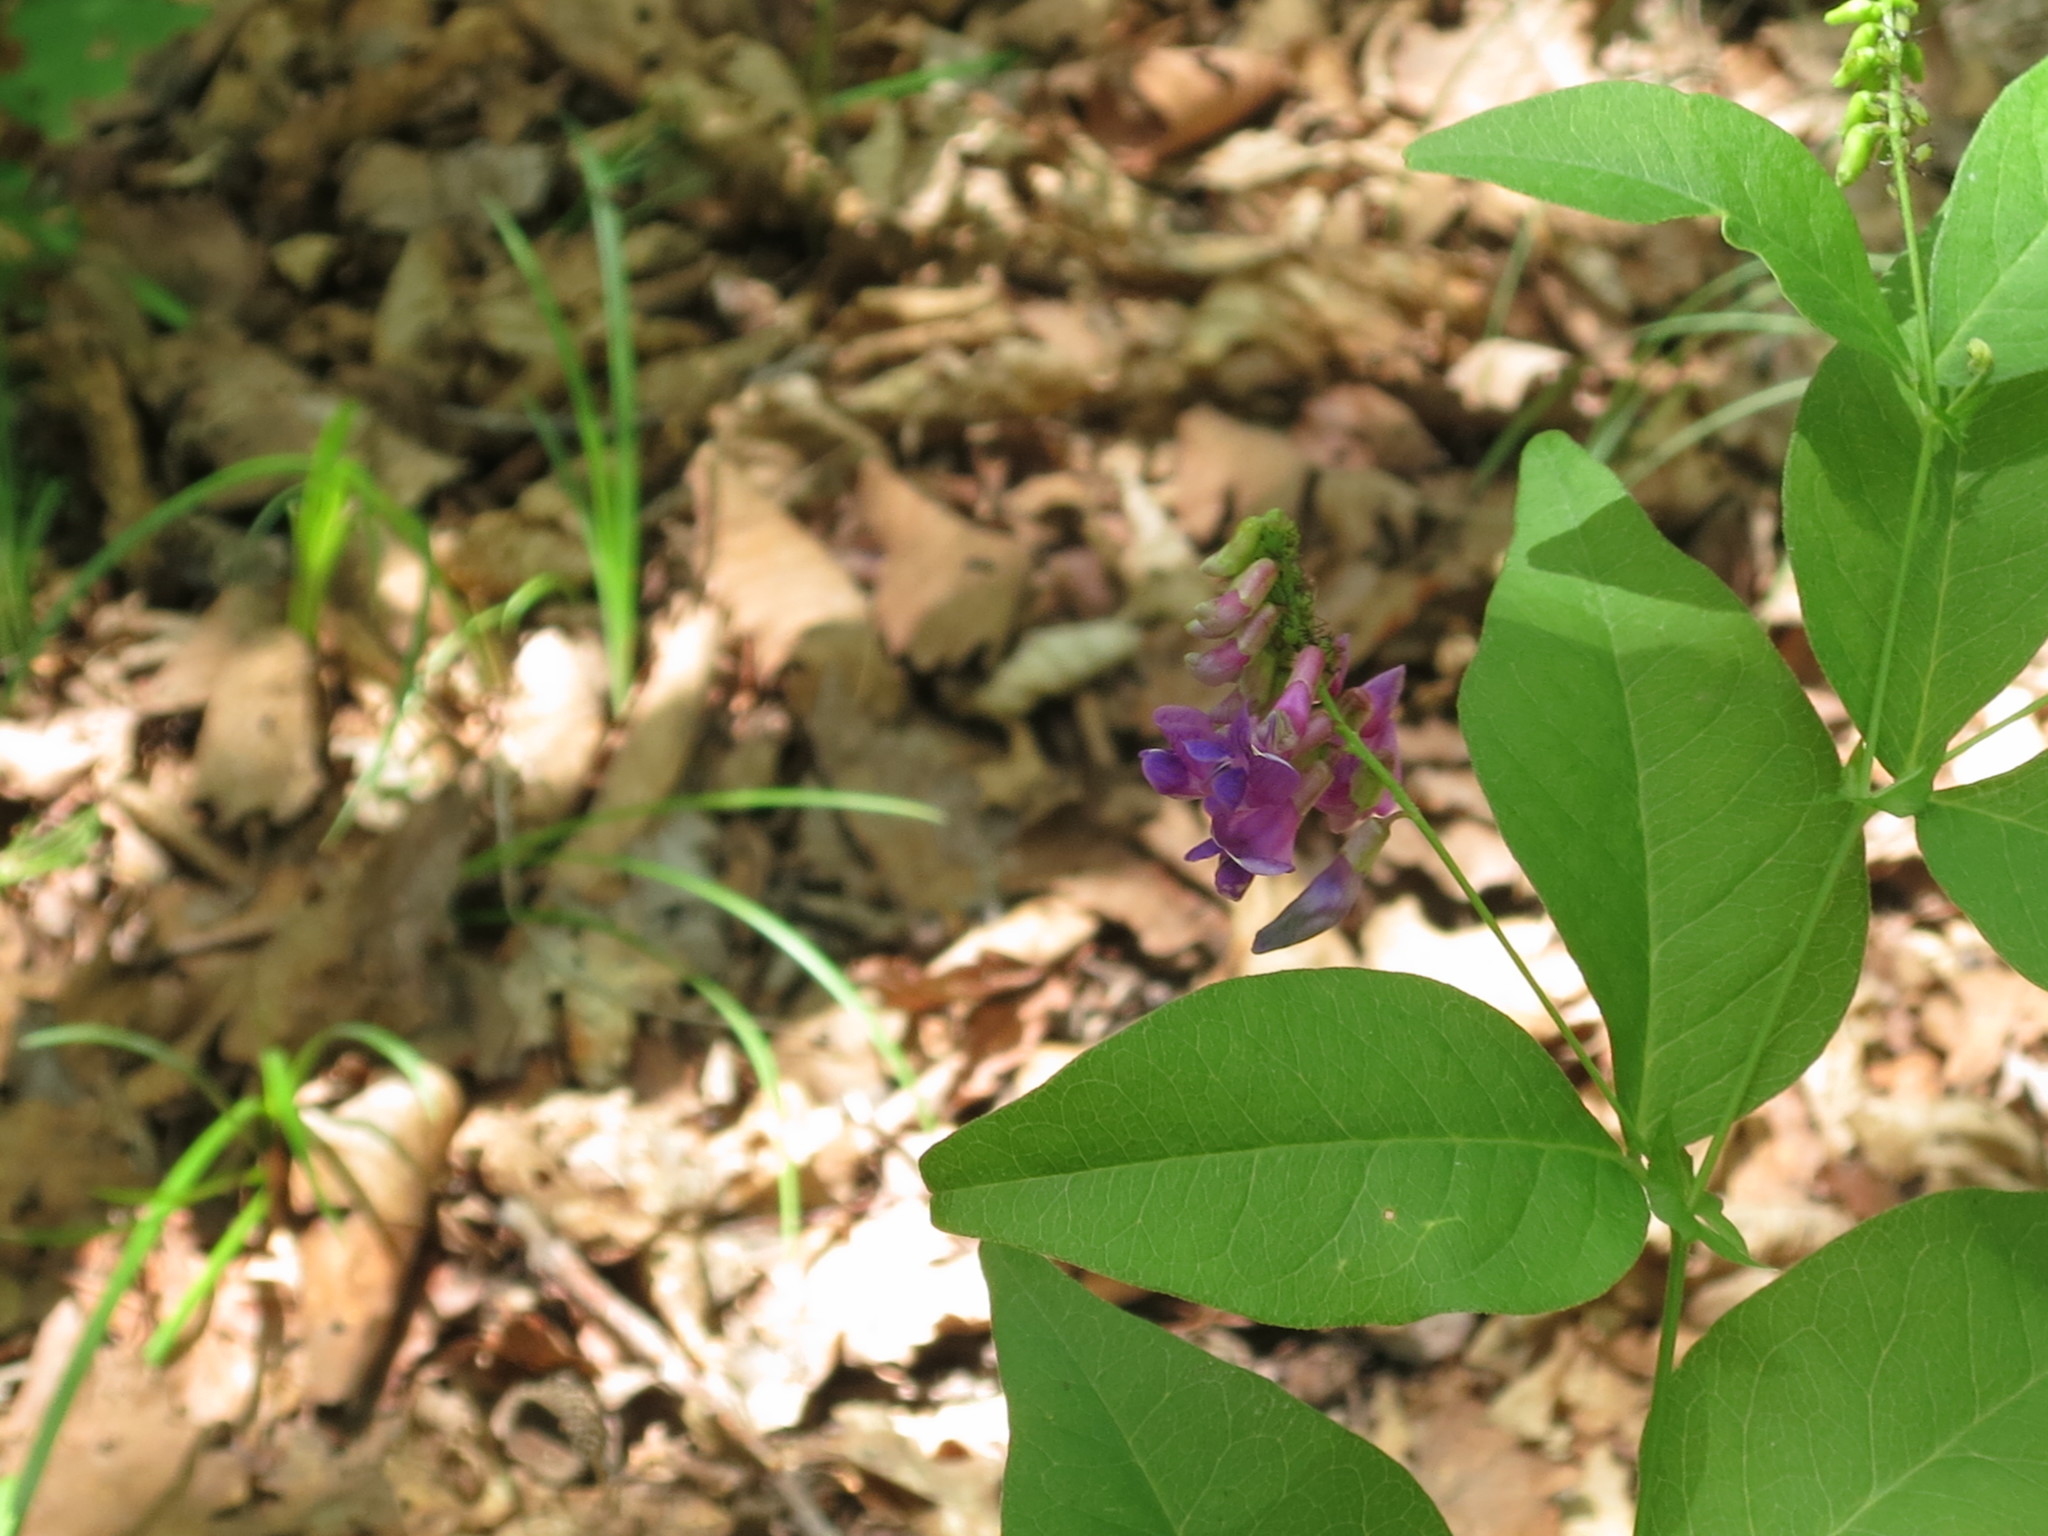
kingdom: Plantae
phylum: Tracheophyta
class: Magnoliopsida
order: Fabales
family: Fabaceae
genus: Vicia
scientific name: Vicia unijuga
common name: Two-leaf vetch
